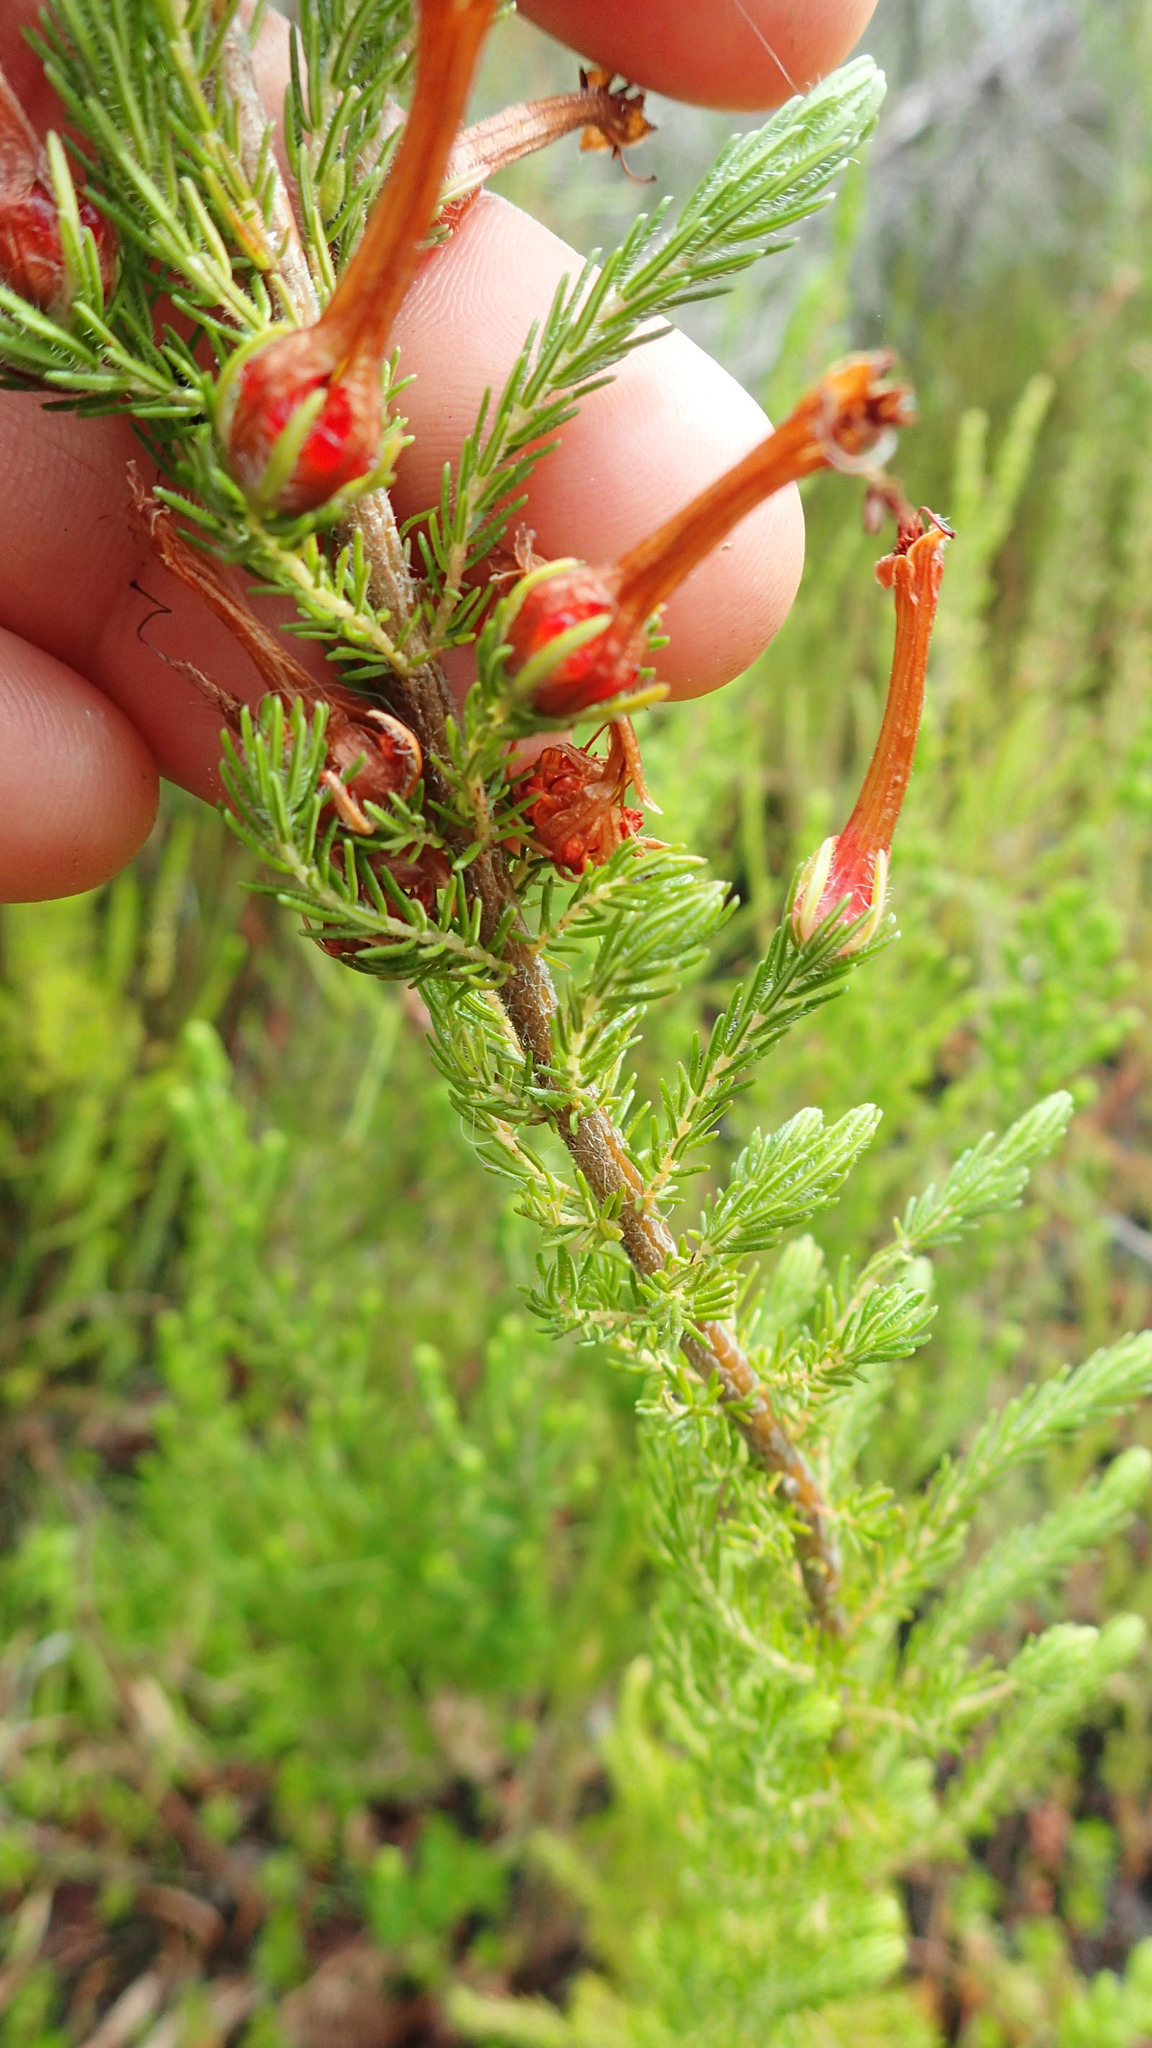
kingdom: Plantae
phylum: Tracheophyta
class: Magnoliopsida
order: Ericales
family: Ericaceae
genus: Erica
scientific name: Erica curviflora
